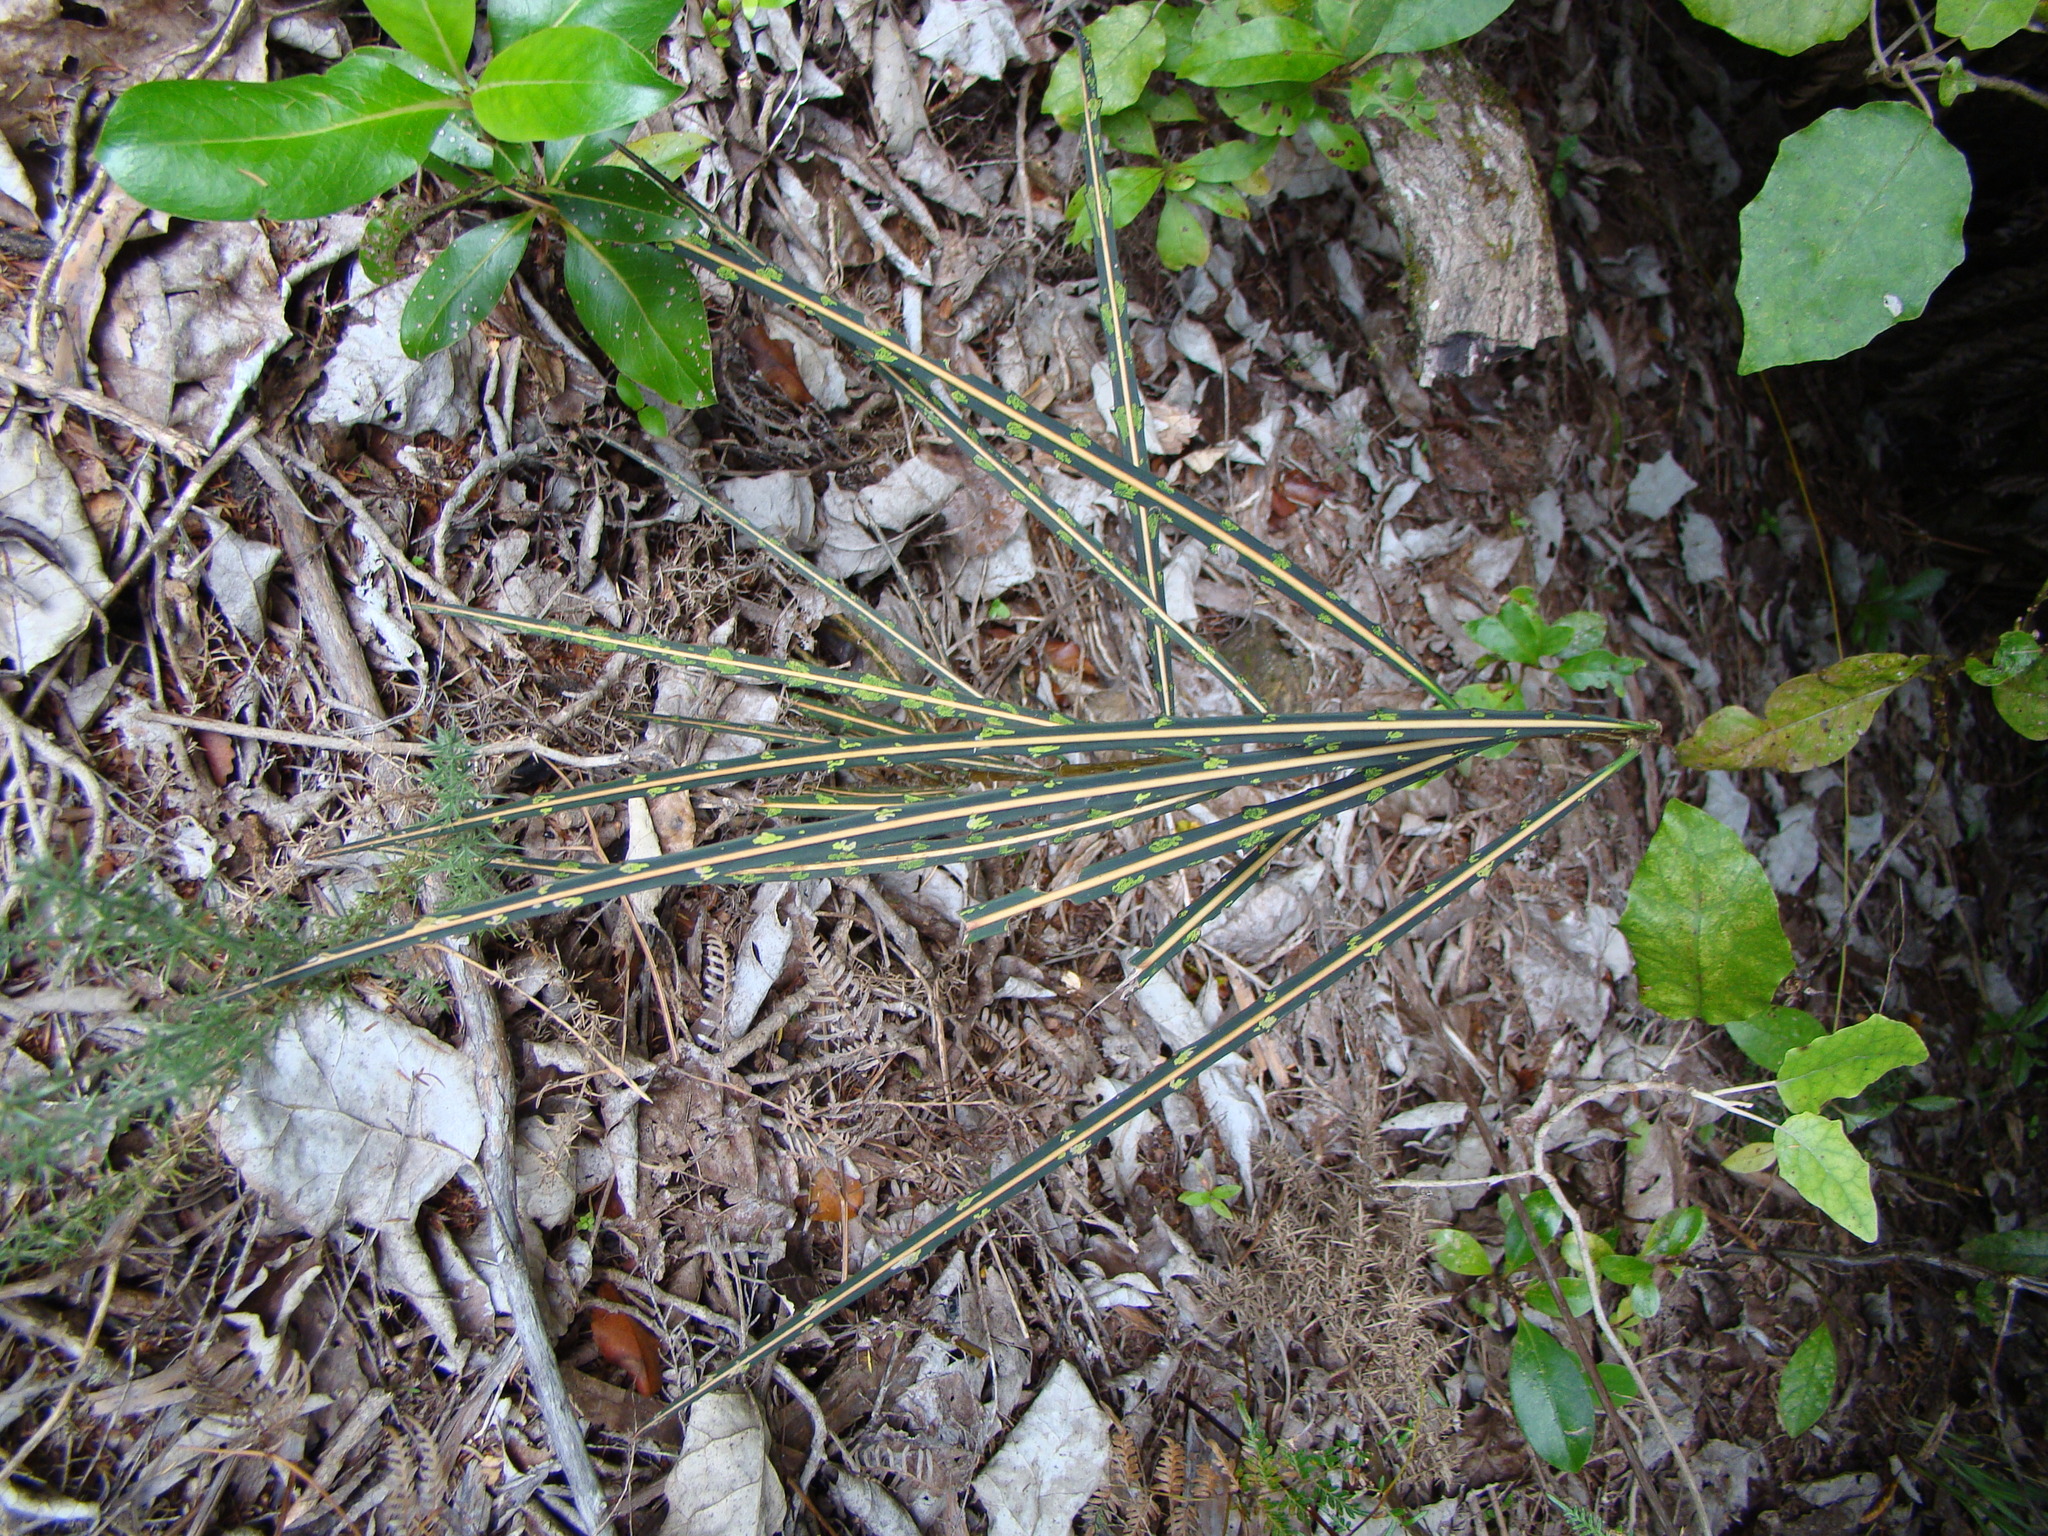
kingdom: Plantae
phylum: Tracheophyta
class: Magnoliopsida
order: Apiales
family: Araliaceae
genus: Pseudopanax
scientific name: Pseudopanax crassifolius
